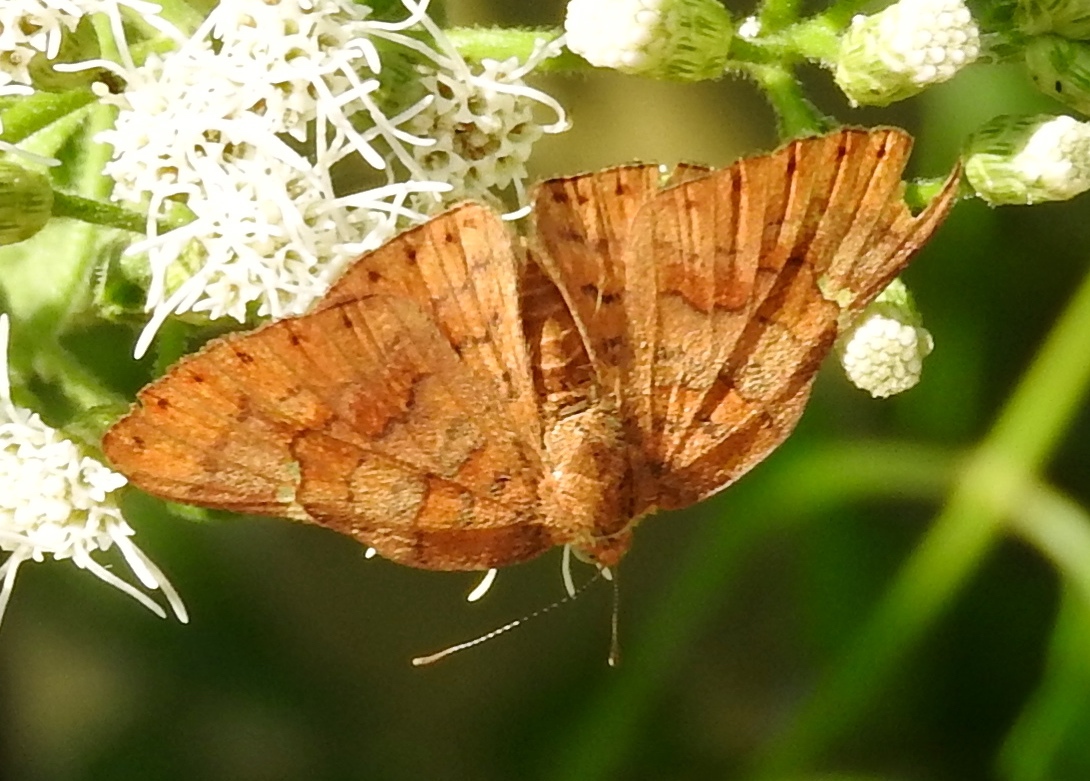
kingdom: Animalia
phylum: Arthropoda
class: Insecta
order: Lepidoptera
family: Riodinidae
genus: Curvie
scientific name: Curvie emesia
